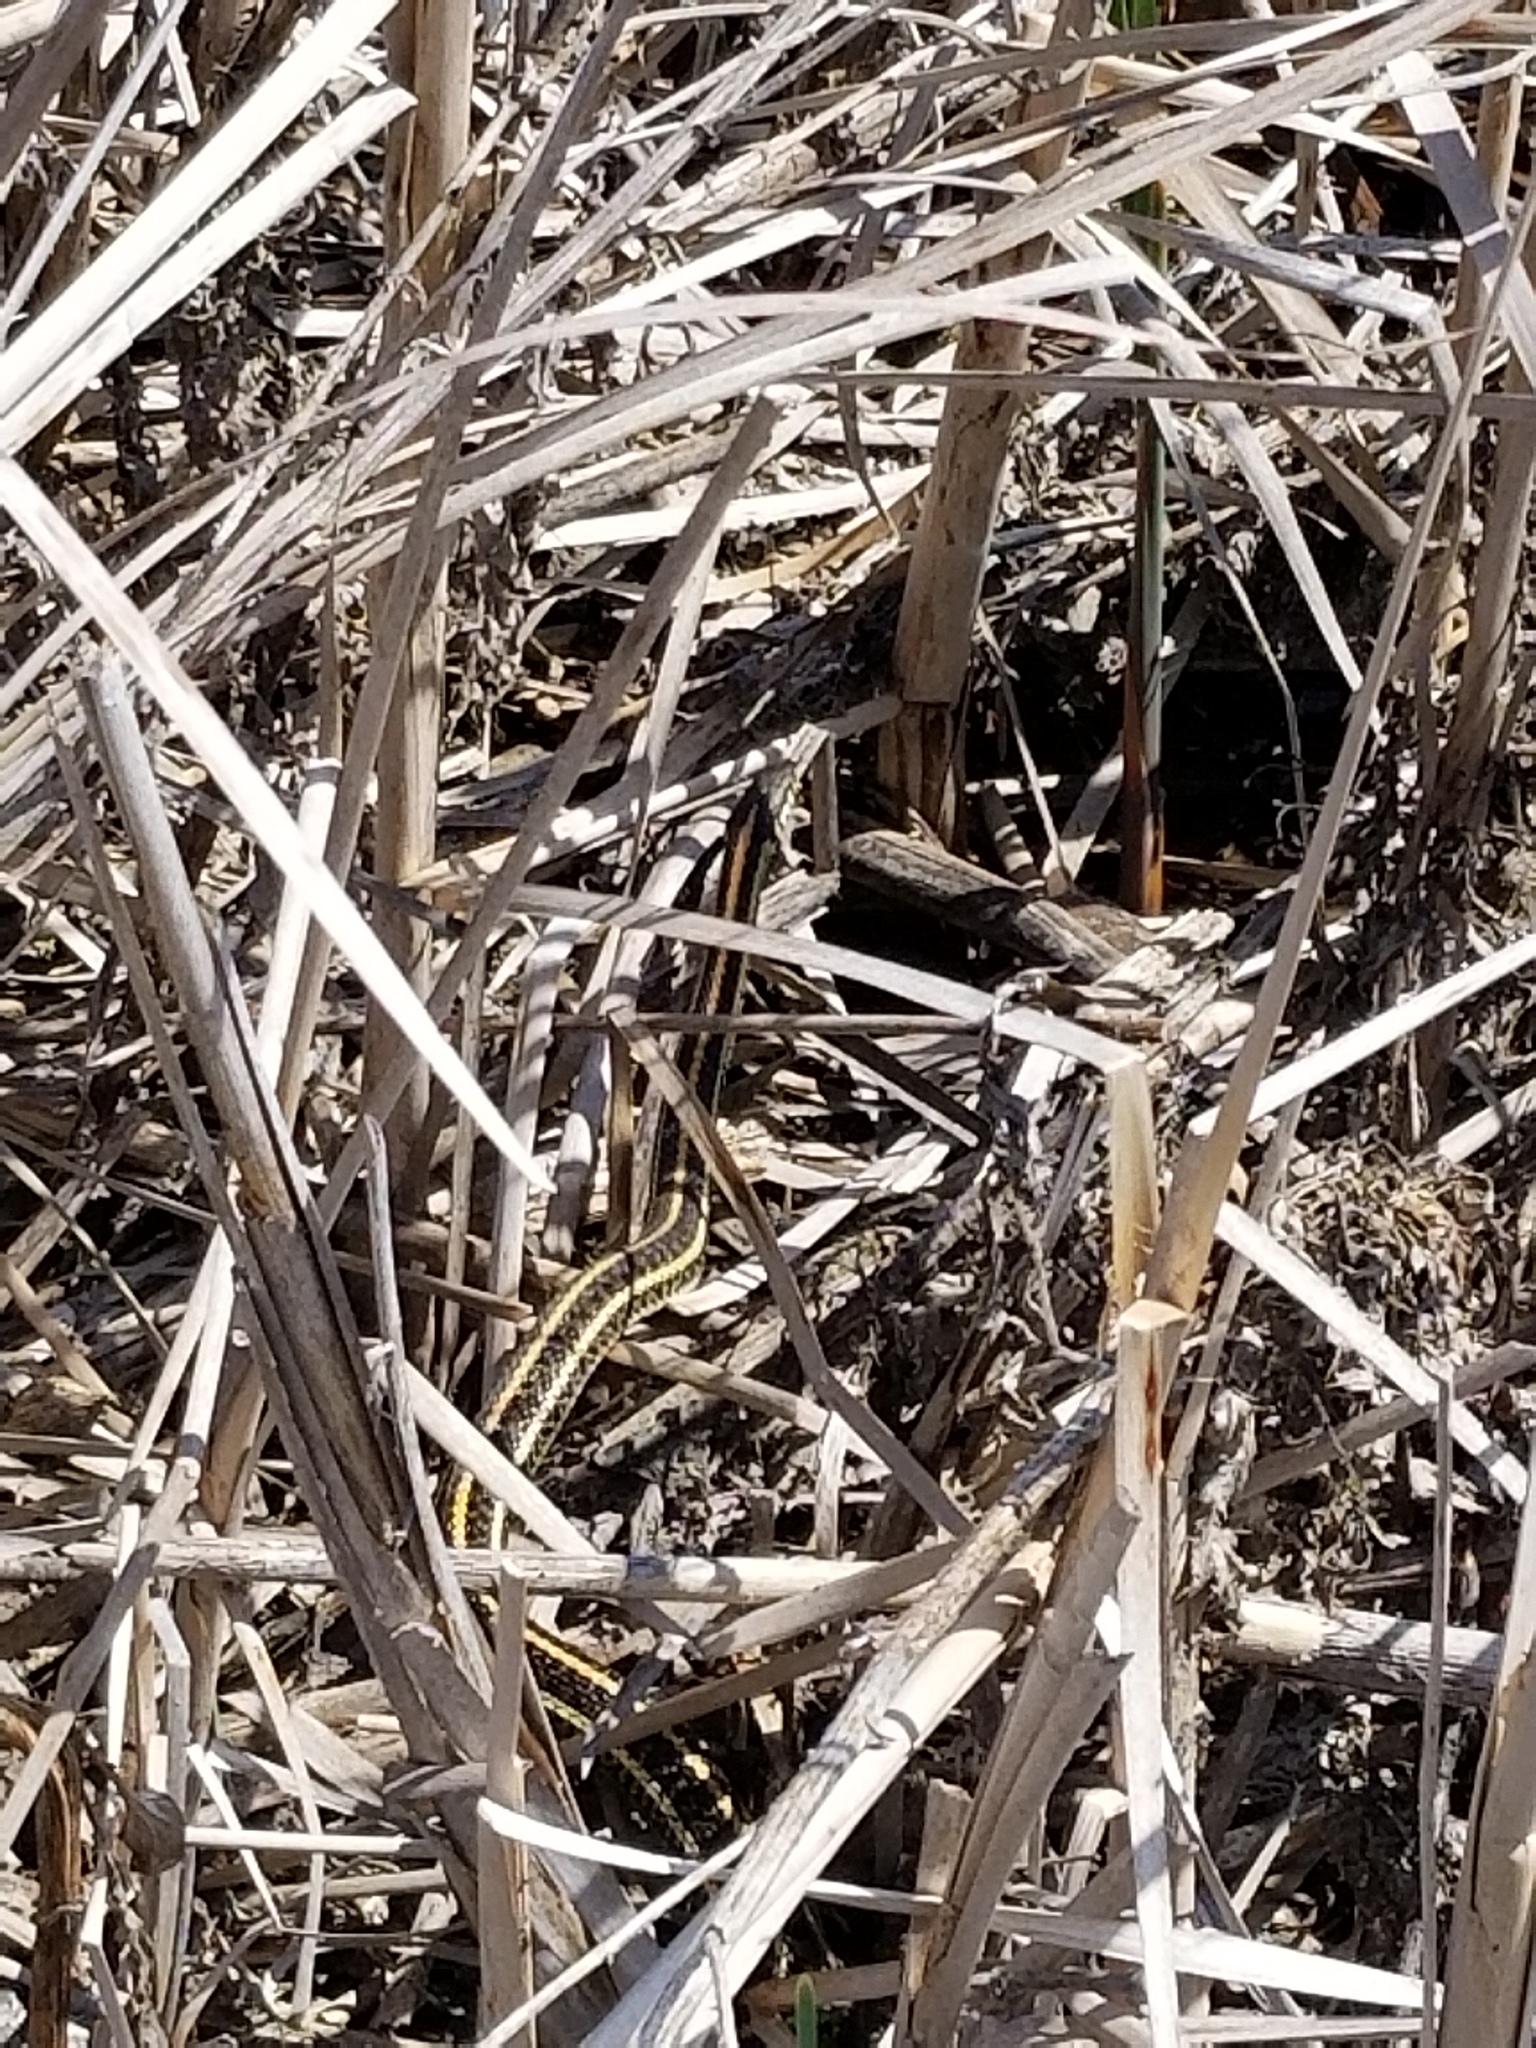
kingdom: Animalia
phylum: Chordata
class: Squamata
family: Colubridae
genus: Thamnophis
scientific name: Thamnophis radix
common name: Plains garter snake
